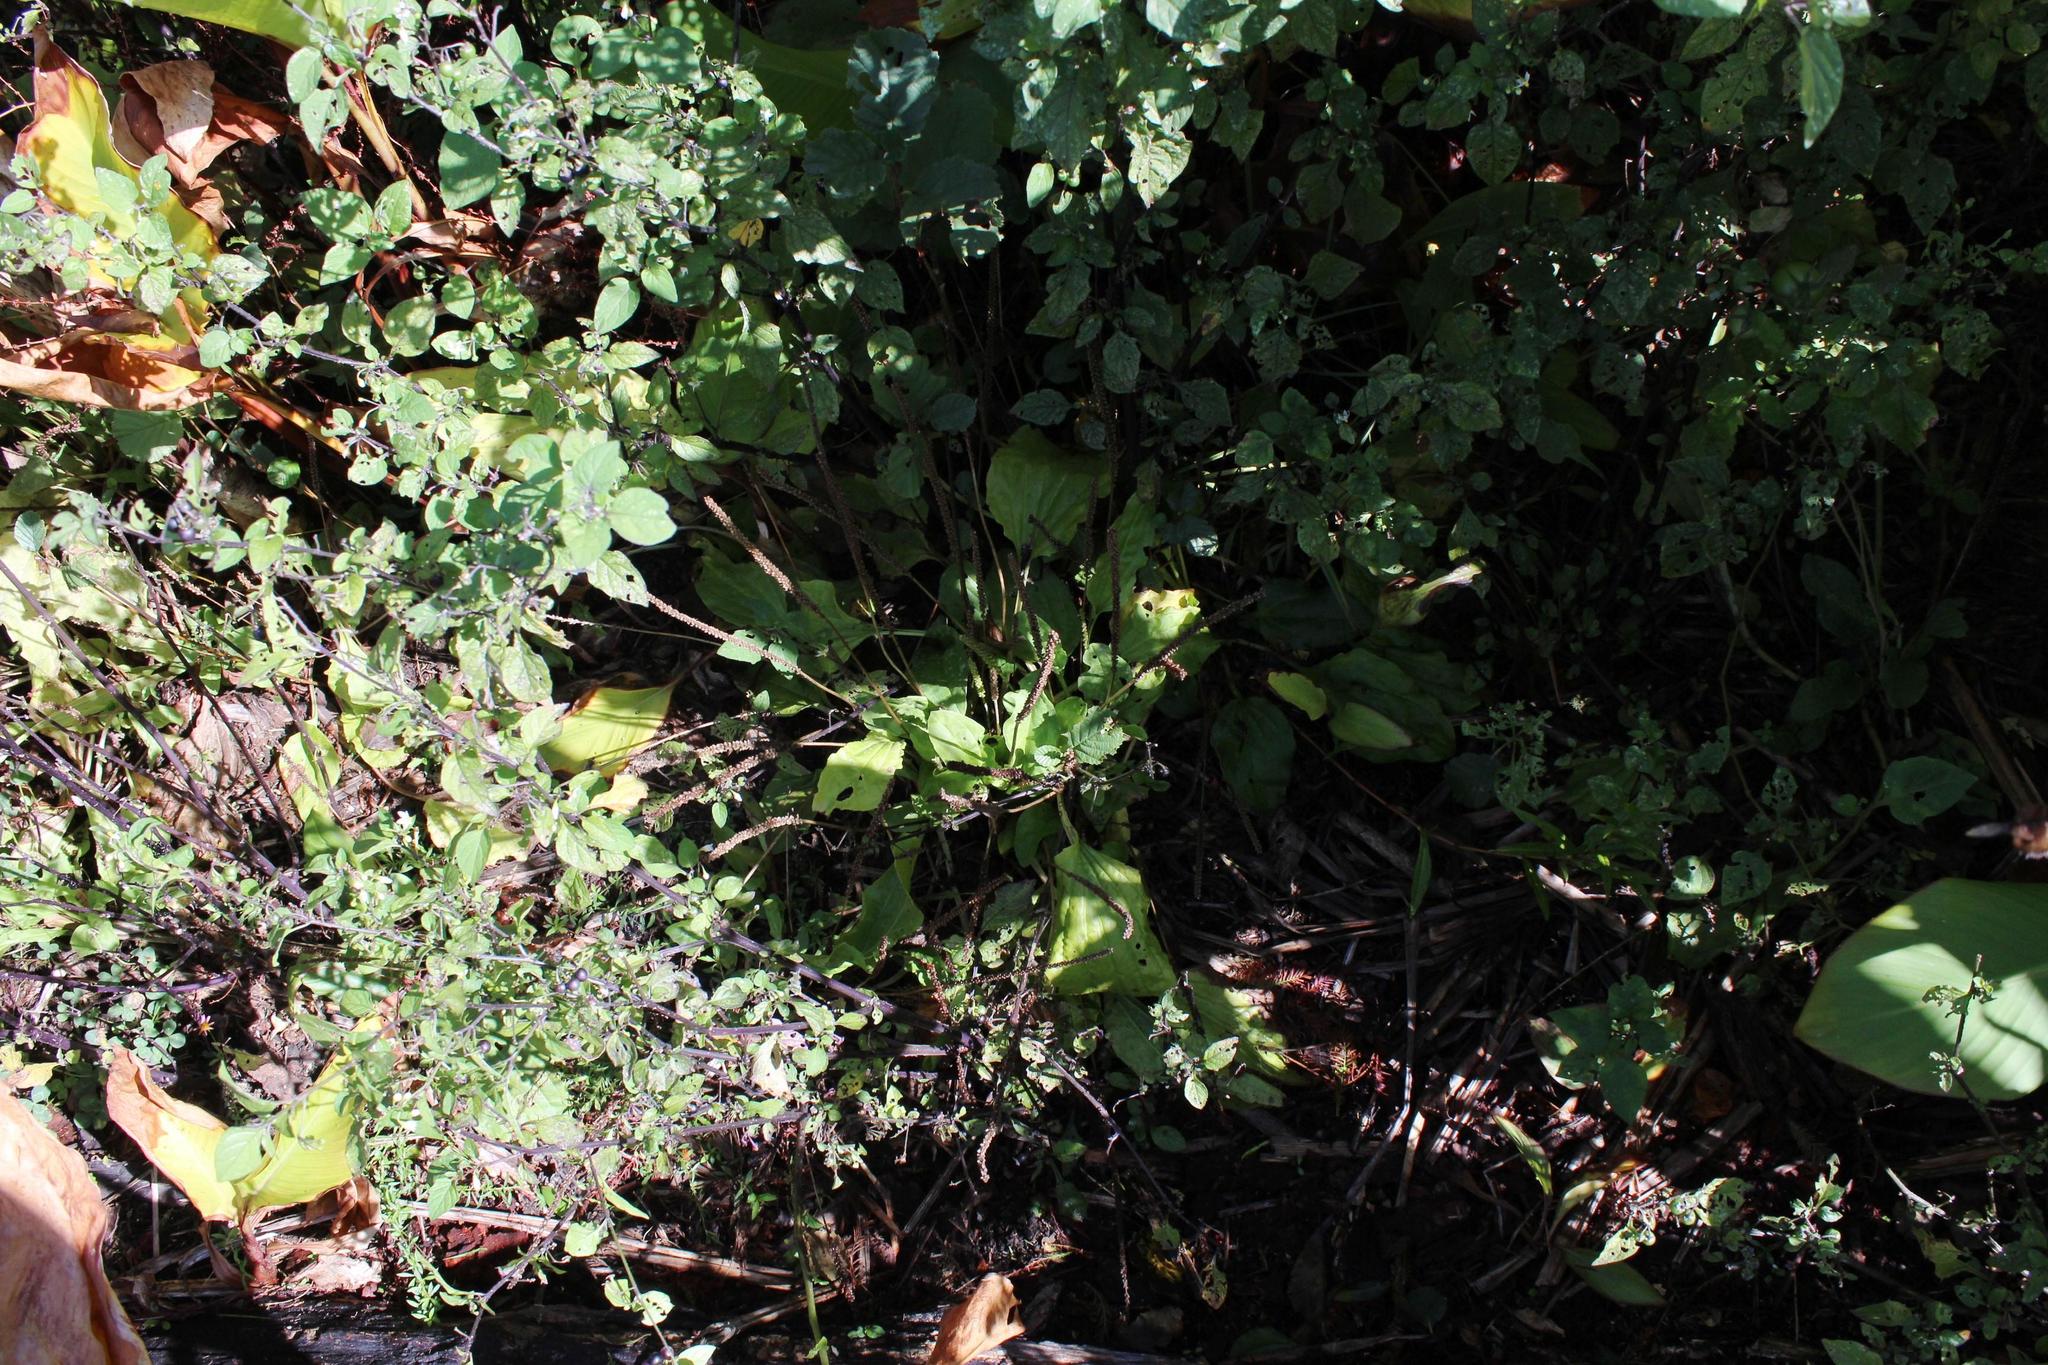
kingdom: Plantae
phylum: Tracheophyta
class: Magnoliopsida
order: Lamiales
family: Plantaginaceae
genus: Plantago
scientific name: Plantago major
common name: Common plantain
